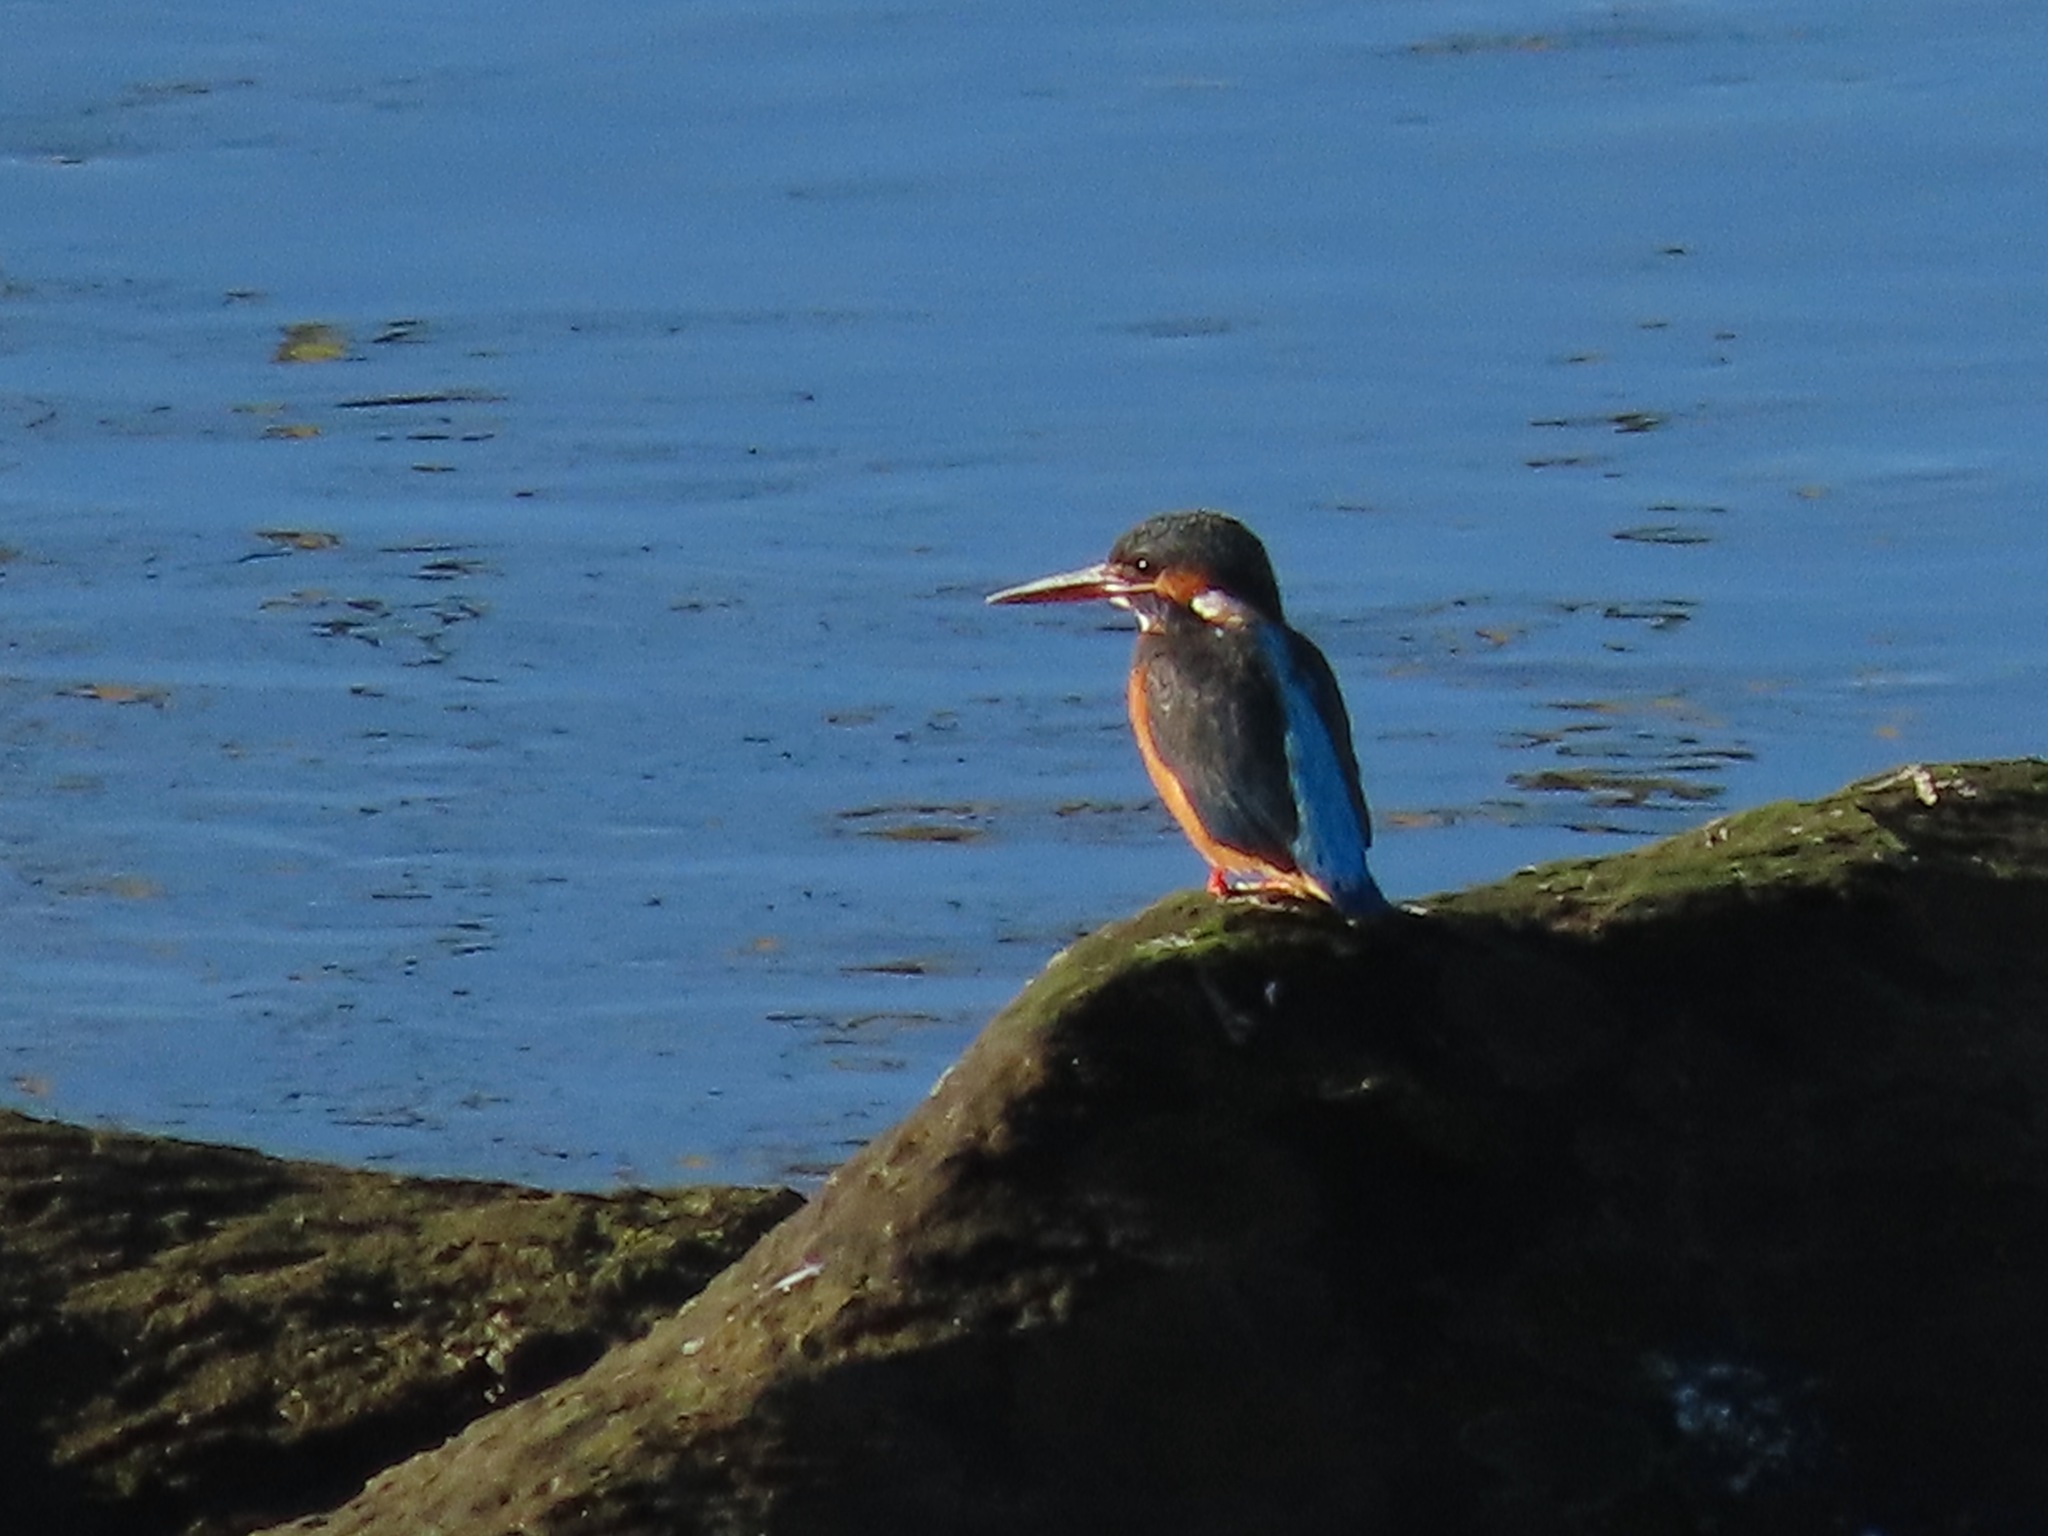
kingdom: Animalia
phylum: Chordata
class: Aves
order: Coraciiformes
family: Alcedinidae
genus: Alcedo
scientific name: Alcedo atthis
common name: Common kingfisher
